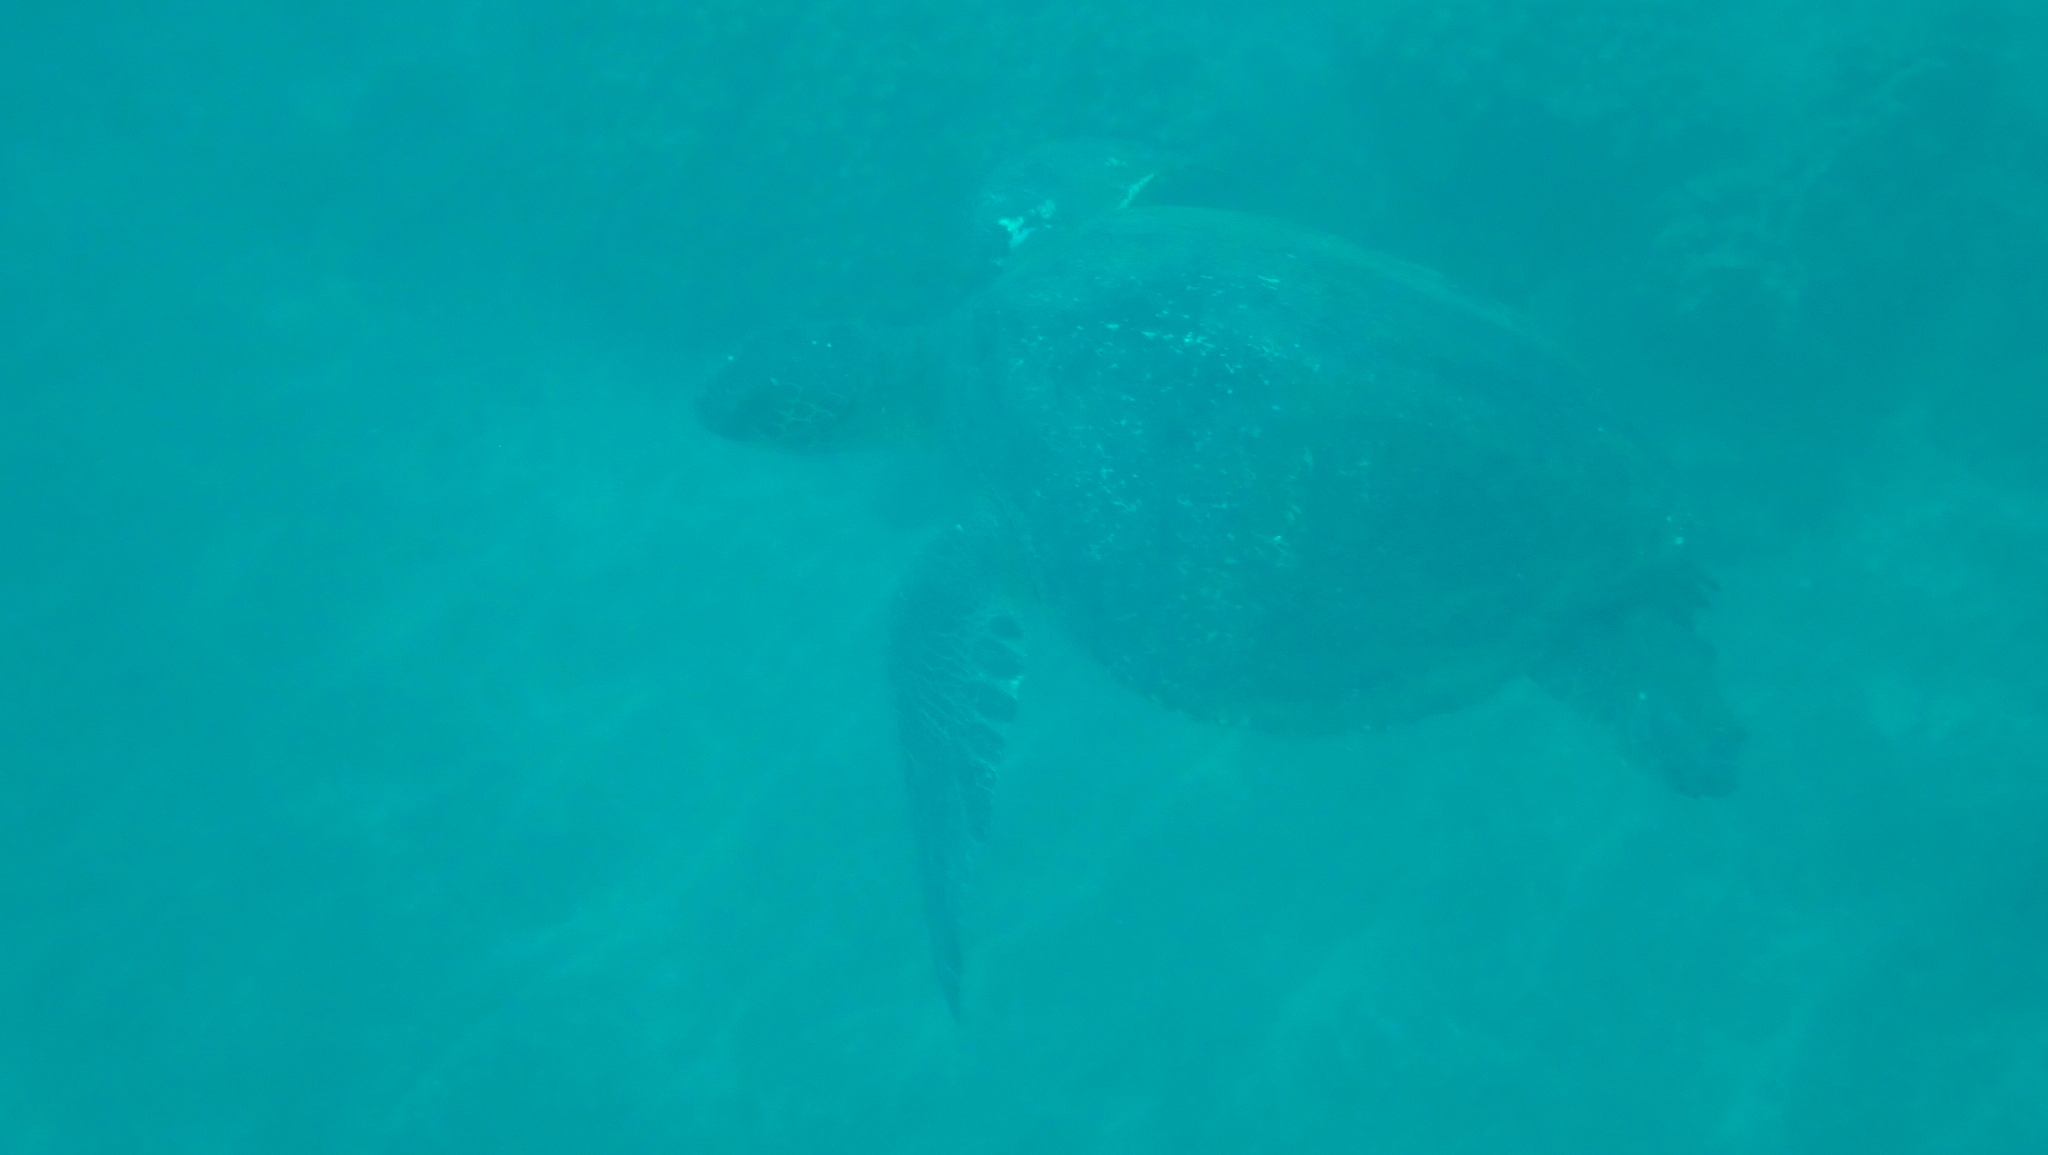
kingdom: Animalia
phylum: Chordata
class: Testudines
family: Cheloniidae
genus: Chelonia
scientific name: Chelonia mydas
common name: Green turtle
